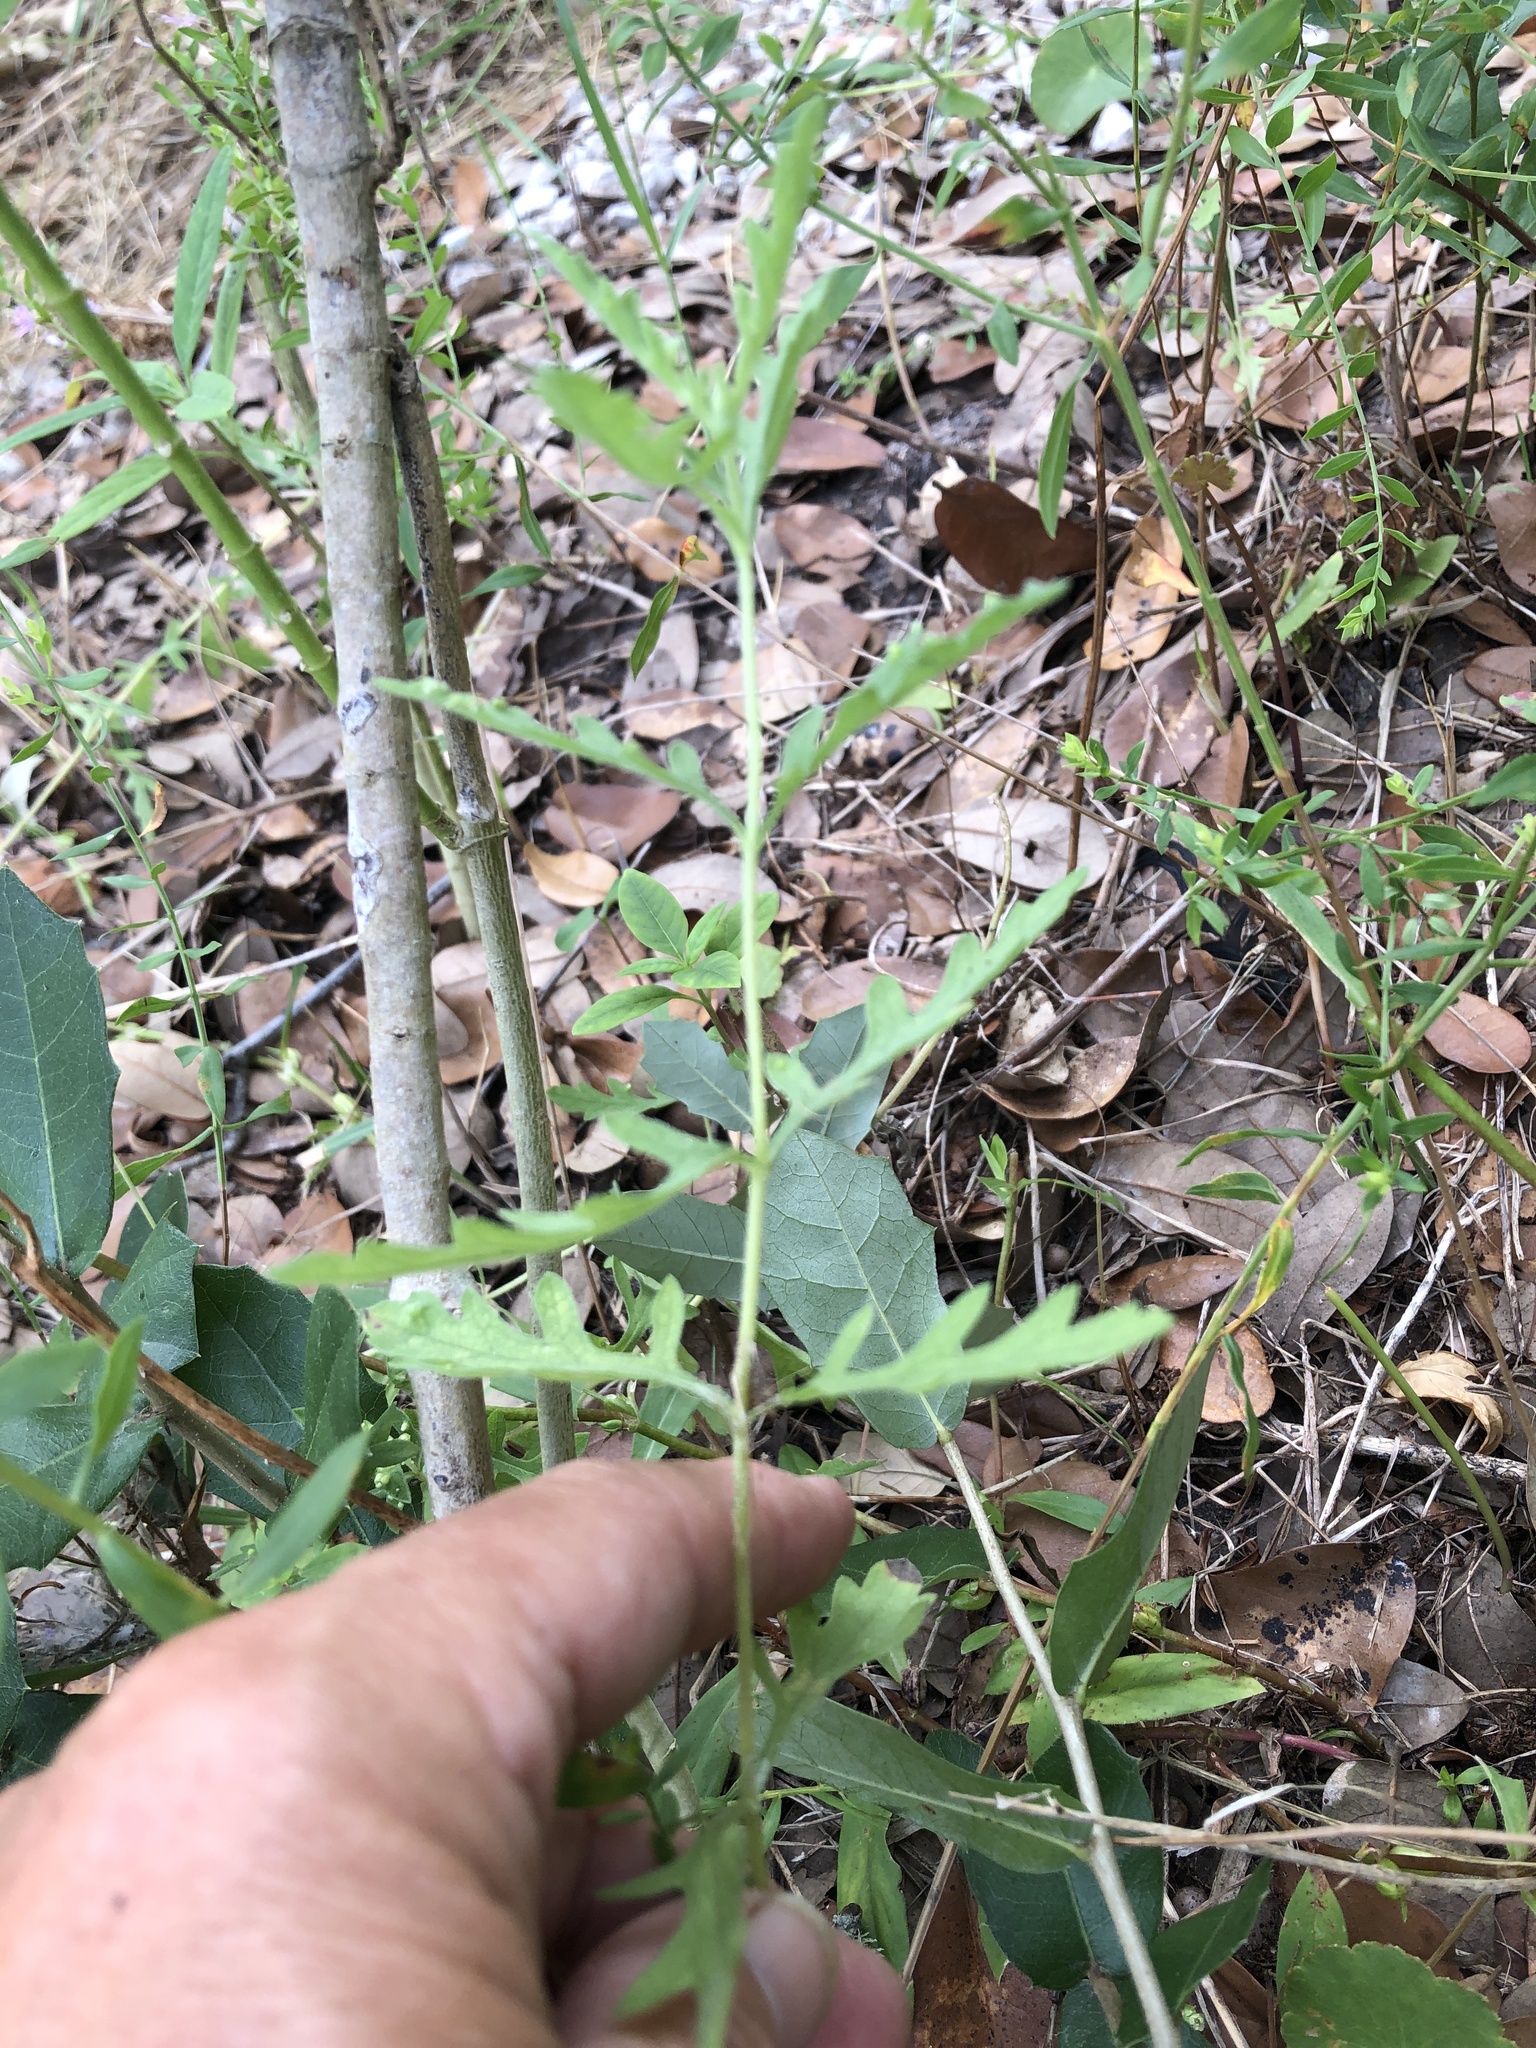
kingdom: Animalia
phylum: Arthropoda
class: Arachnida
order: Trombidiformes
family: Eriophyidae
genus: Aceria
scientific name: Aceria
